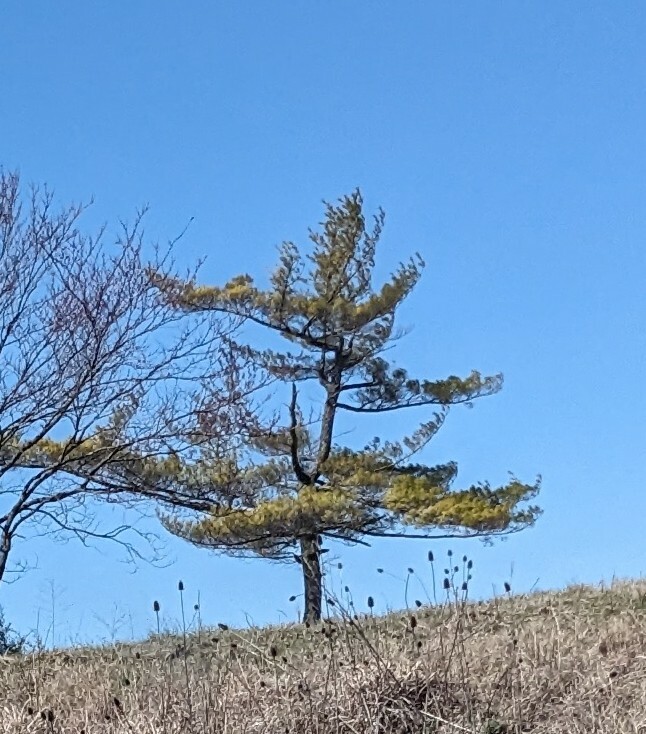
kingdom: Plantae
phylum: Tracheophyta
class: Pinopsida
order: Pinales
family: Pinaceae
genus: Pinus
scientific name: Pinus strobus
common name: Weymouth pine
